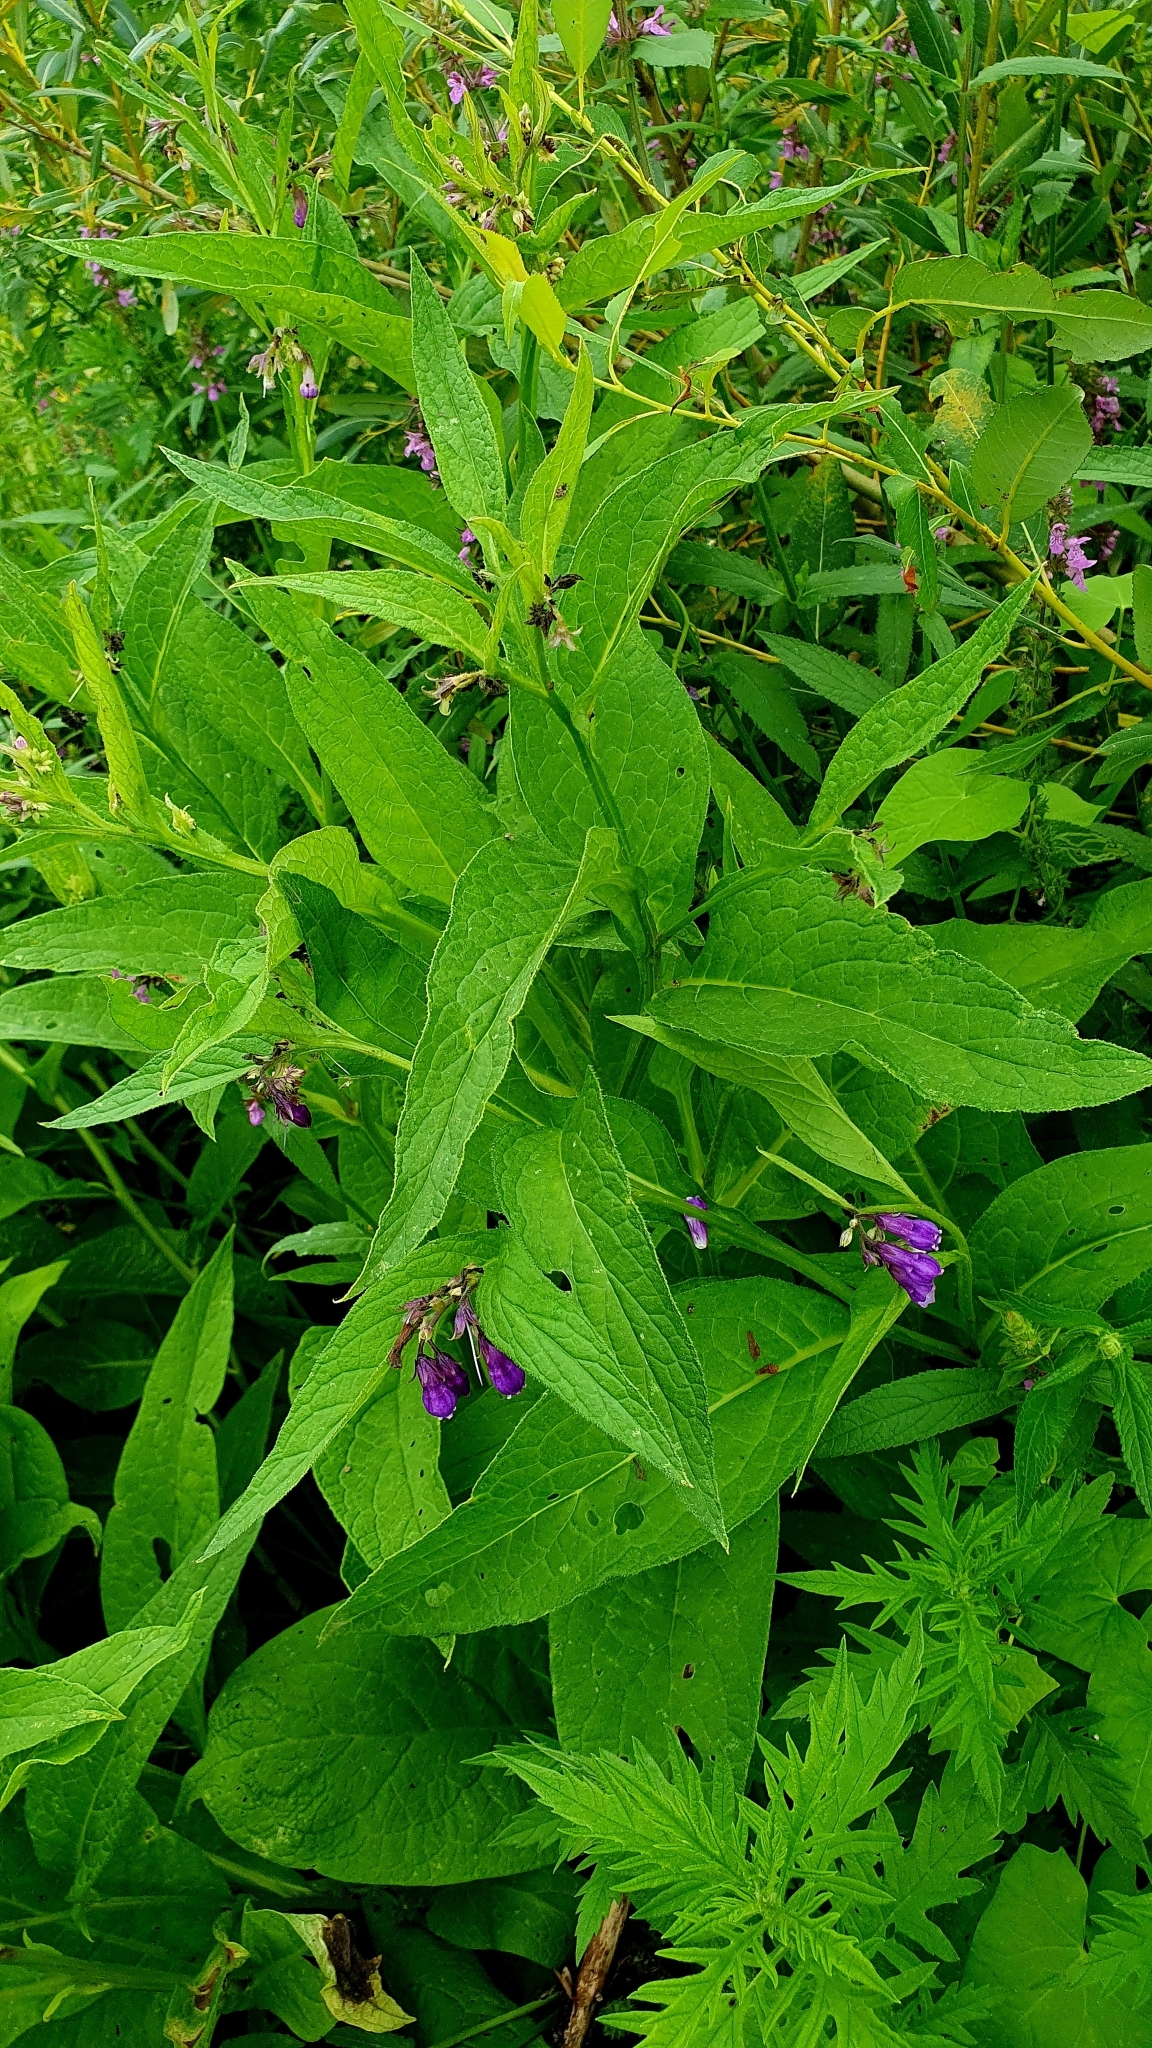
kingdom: Plantae
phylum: Tracheophyta
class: Magnoliopsida
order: Boraginales
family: Boraginaceae
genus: Symphytum
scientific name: Symphytum officinale
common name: Common comfrey
